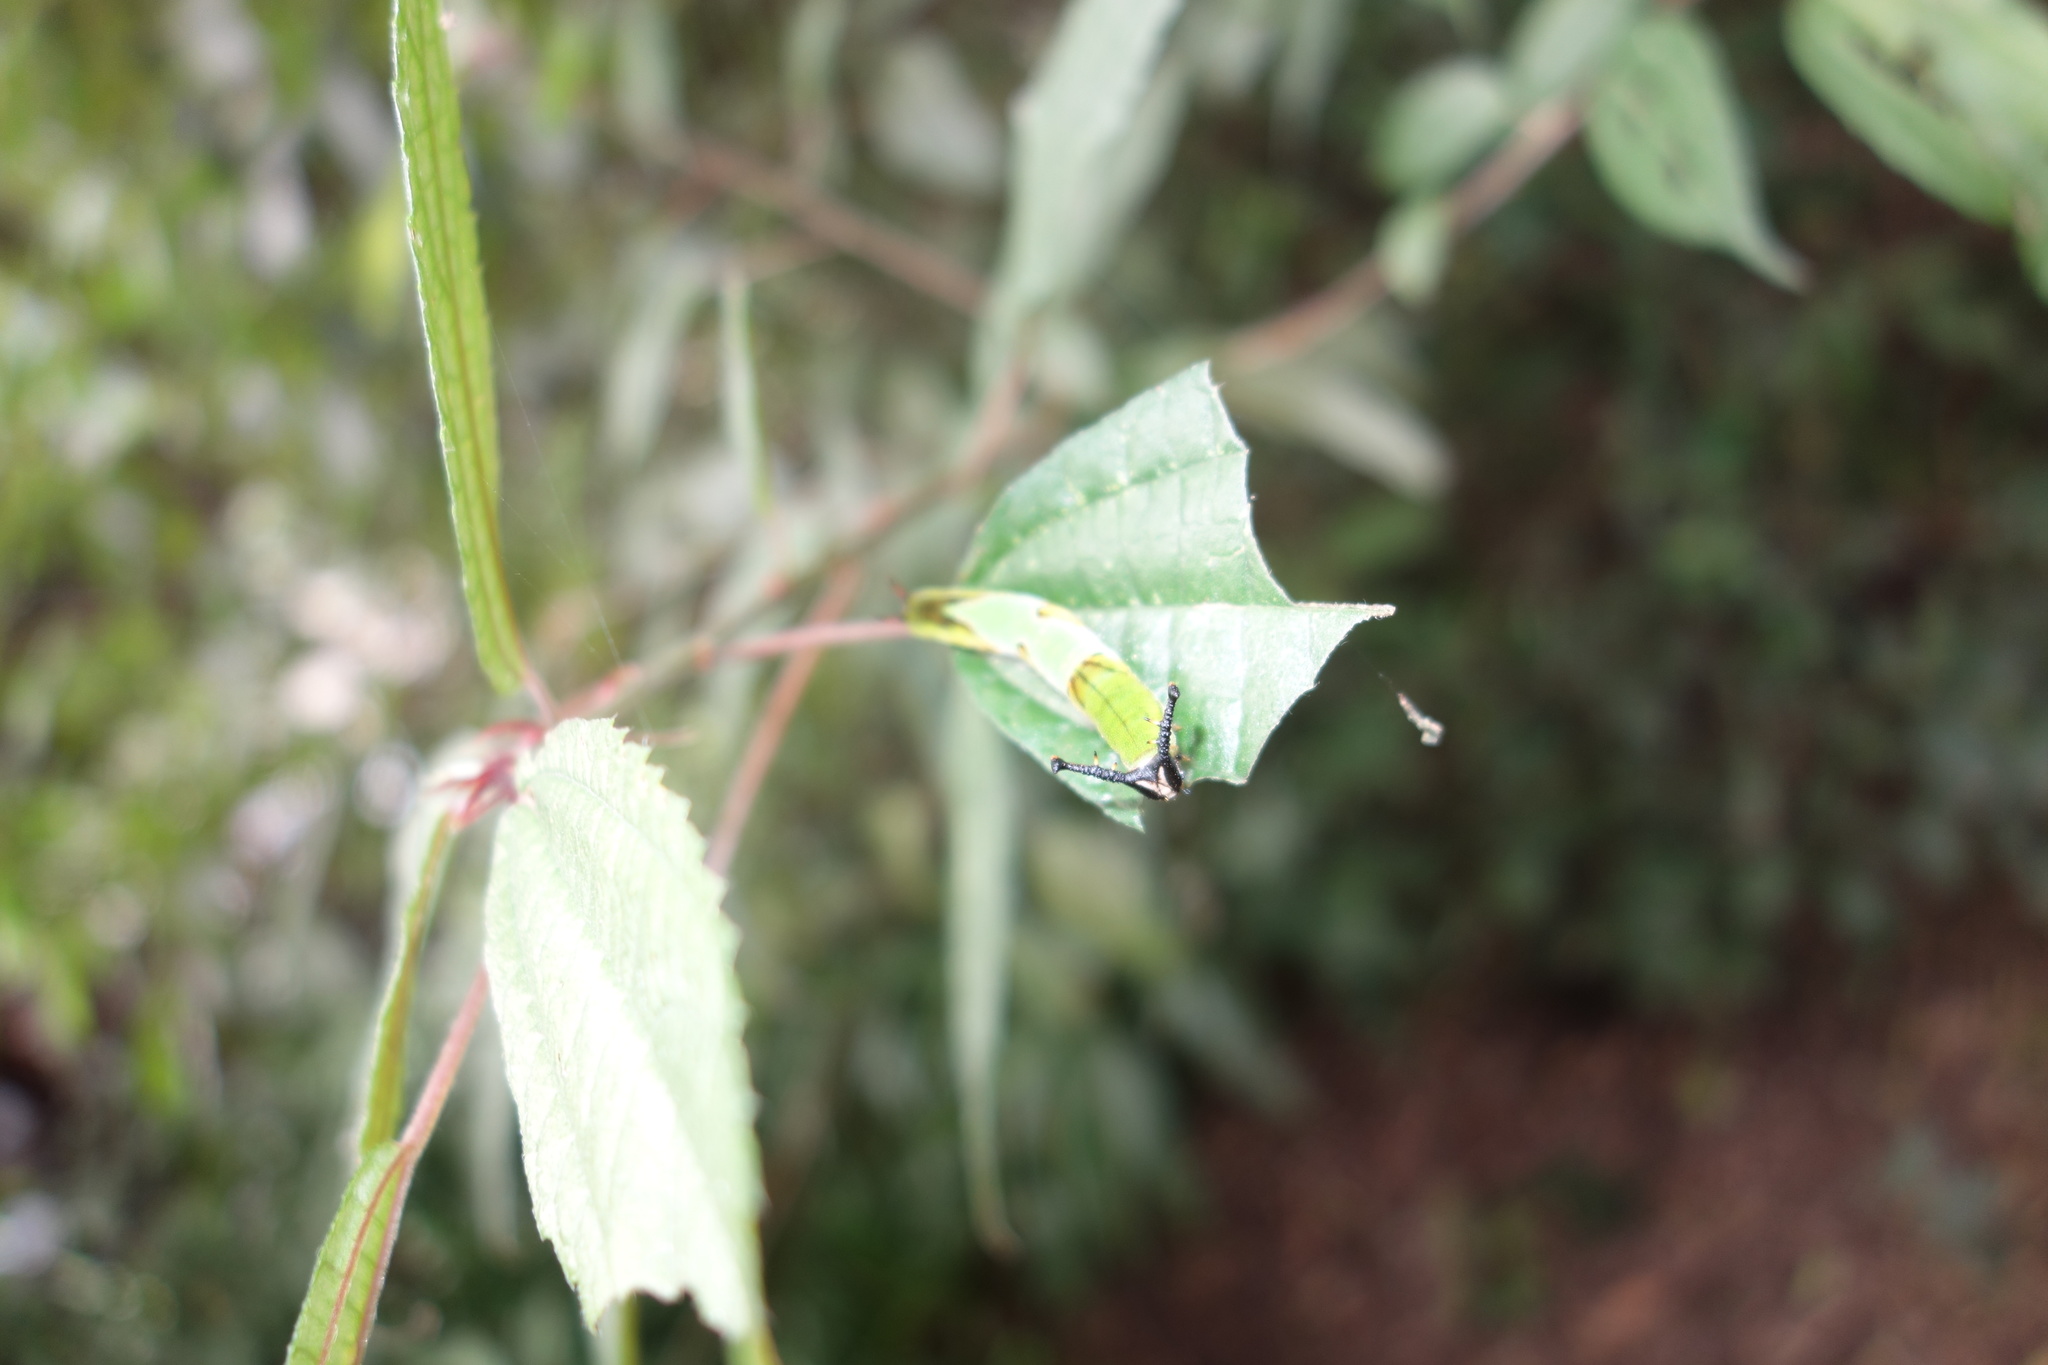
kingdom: Animalia
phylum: Arthropoda
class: Insecta
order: Lepidoptera
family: Nymphalidae
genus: Stibochiona
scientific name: Stibochiona nicea
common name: Popinjay
